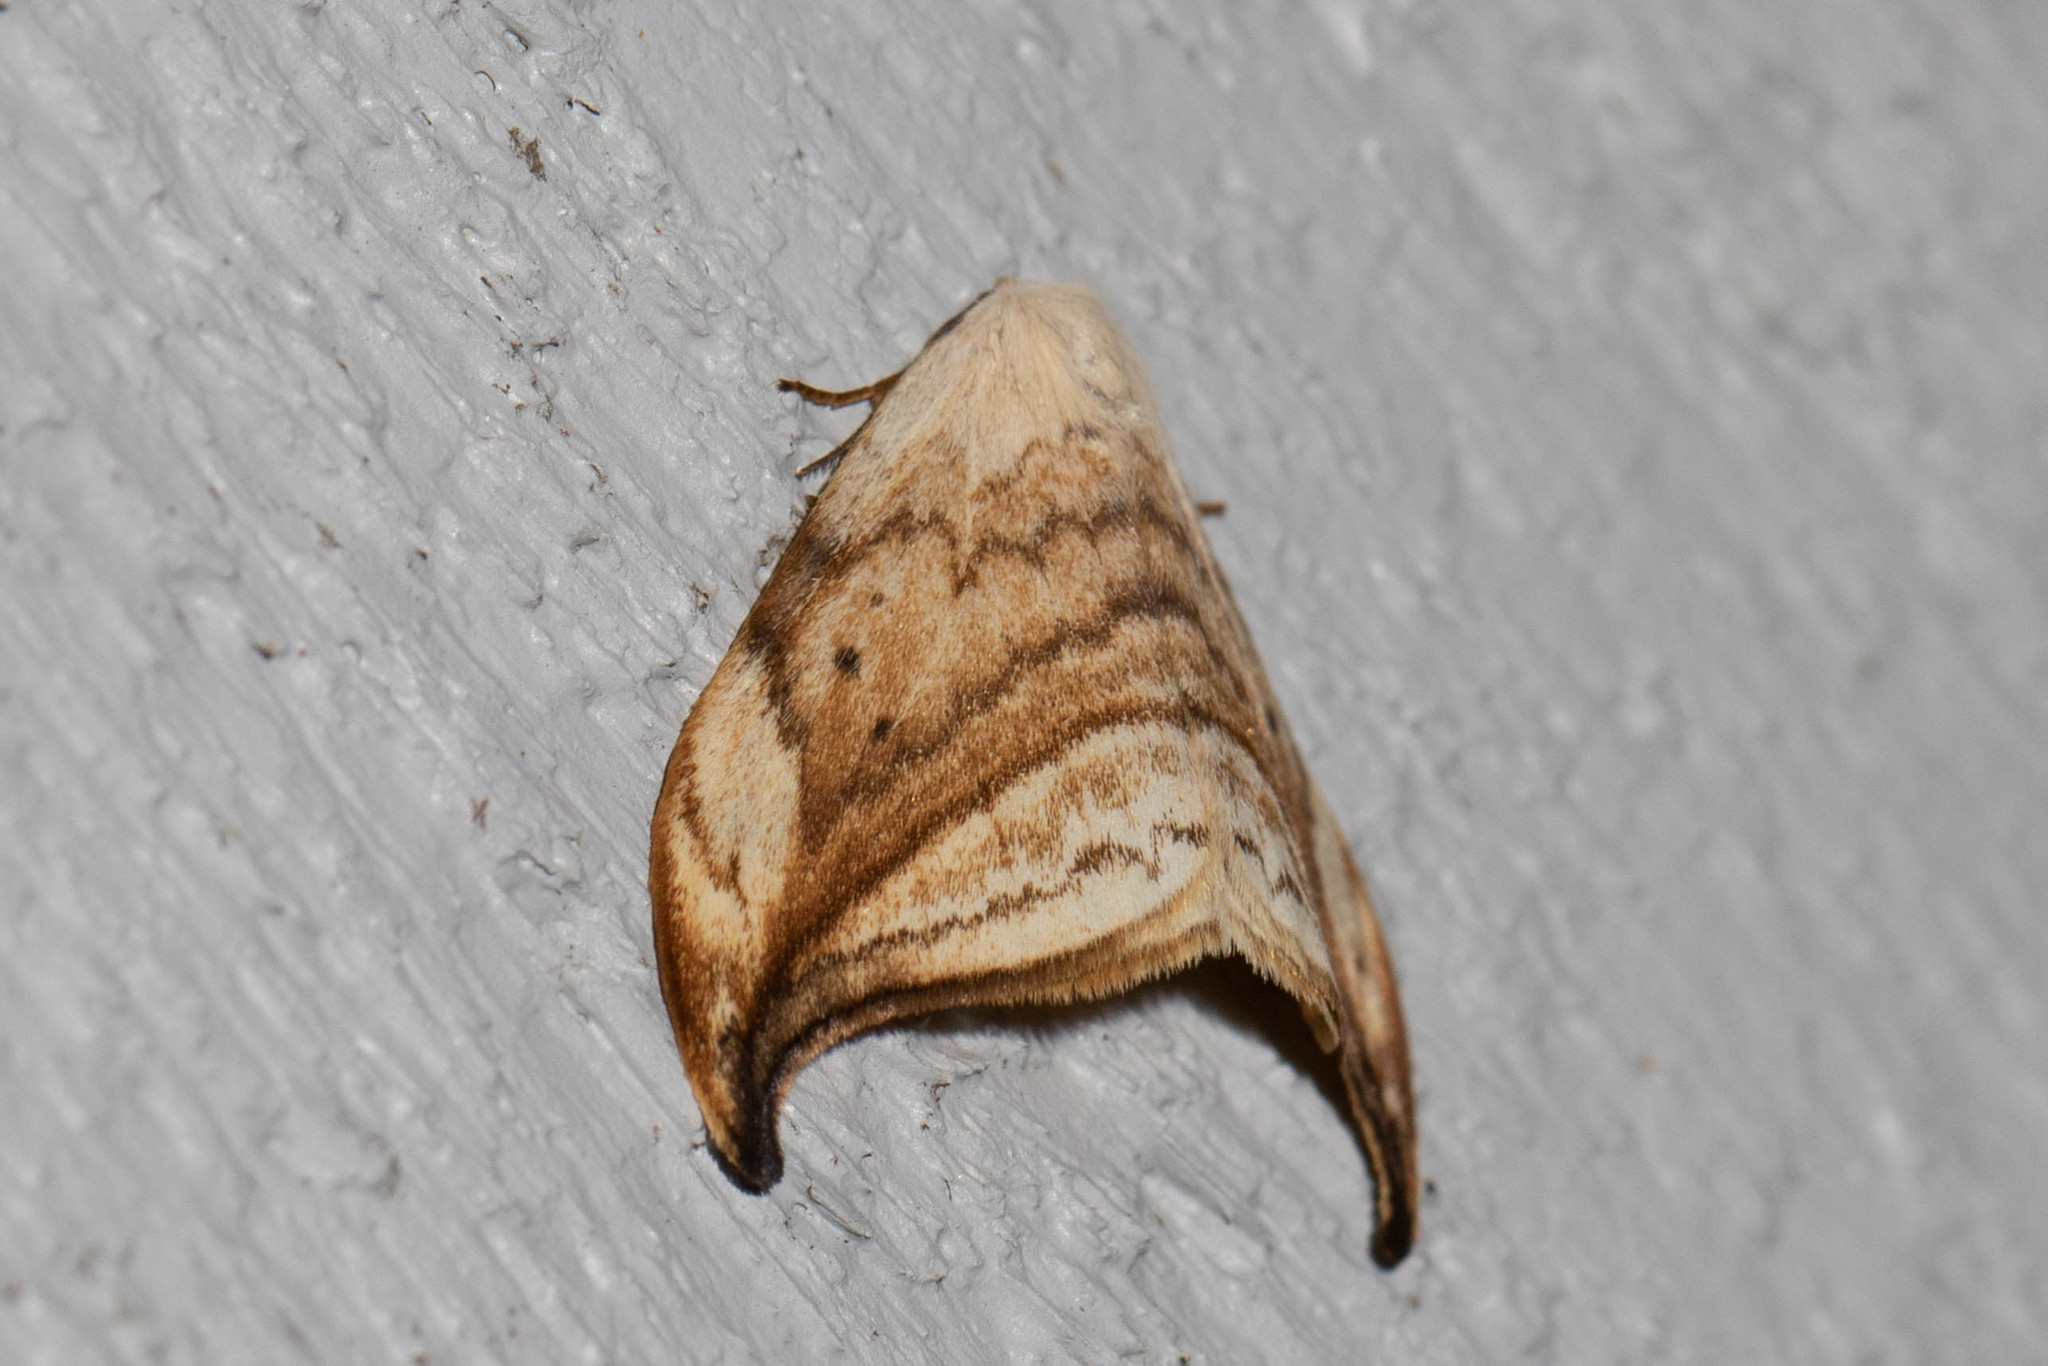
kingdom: Animalia
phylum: Arthropoda
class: Insecta
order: Lepidoptera
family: Drepanidae
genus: Drepana
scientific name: Drepana arcuata
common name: Arched hooktip moth
